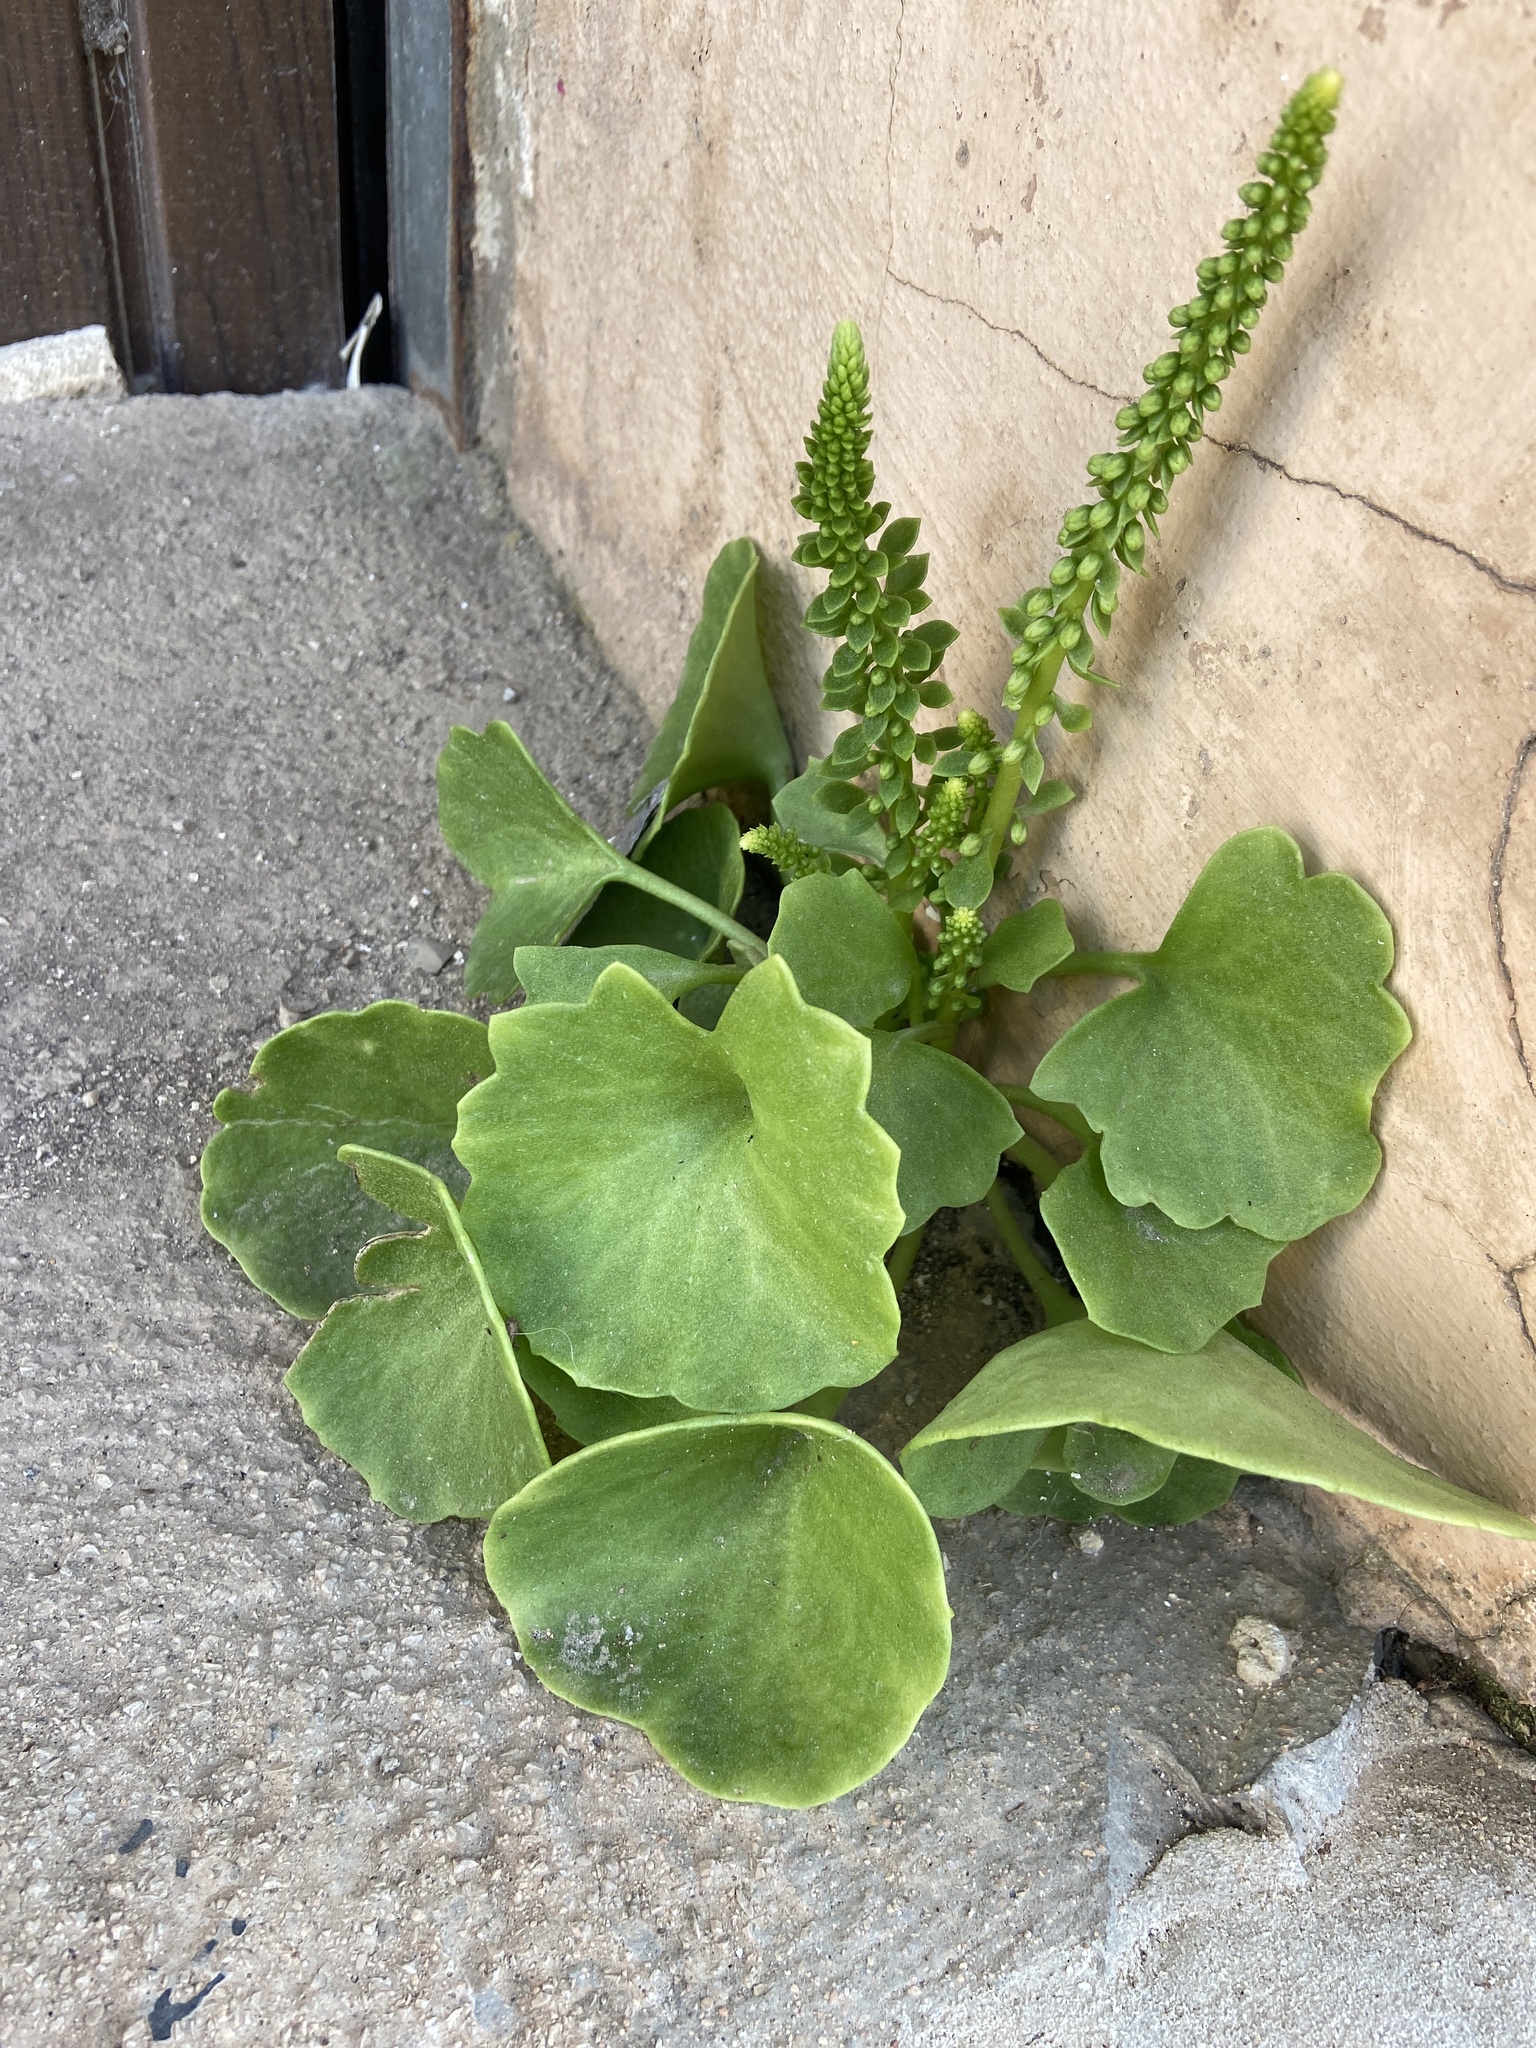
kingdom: Plantae
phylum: Tracheophyta
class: Magnoliopsida
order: Saxifragales
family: Crassulaceae
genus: Umbilicus
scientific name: Umbilicus rupestris
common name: Navelwort
